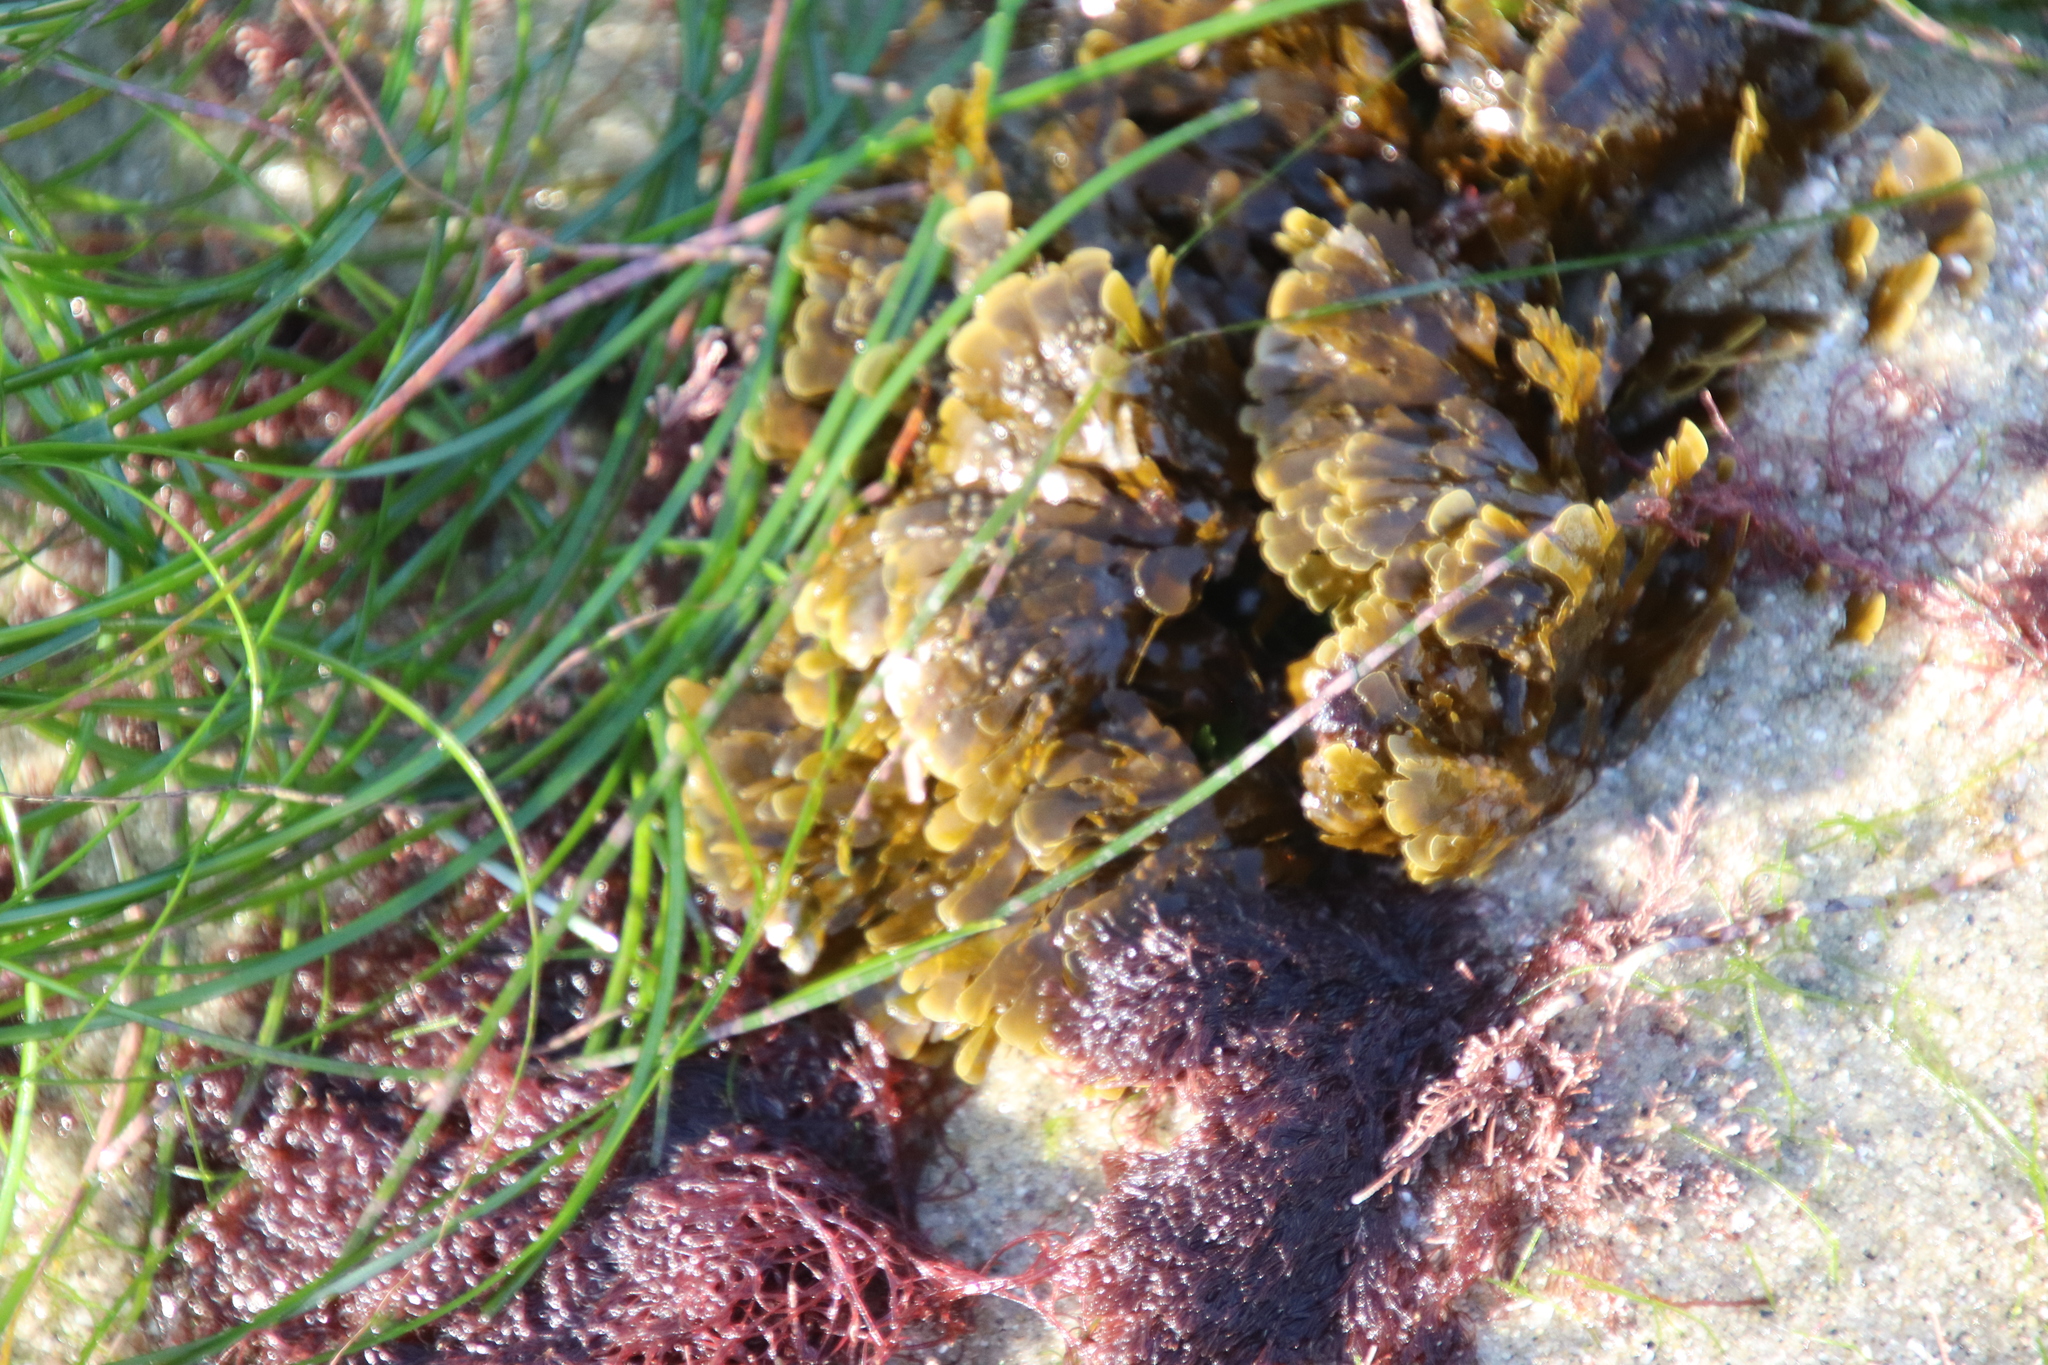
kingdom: Chromista
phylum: Ochrophyta
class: Phaeophyceae
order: Dictyotales
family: Dictyotaceae
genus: Zonaria
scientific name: Zonaria farlowii
